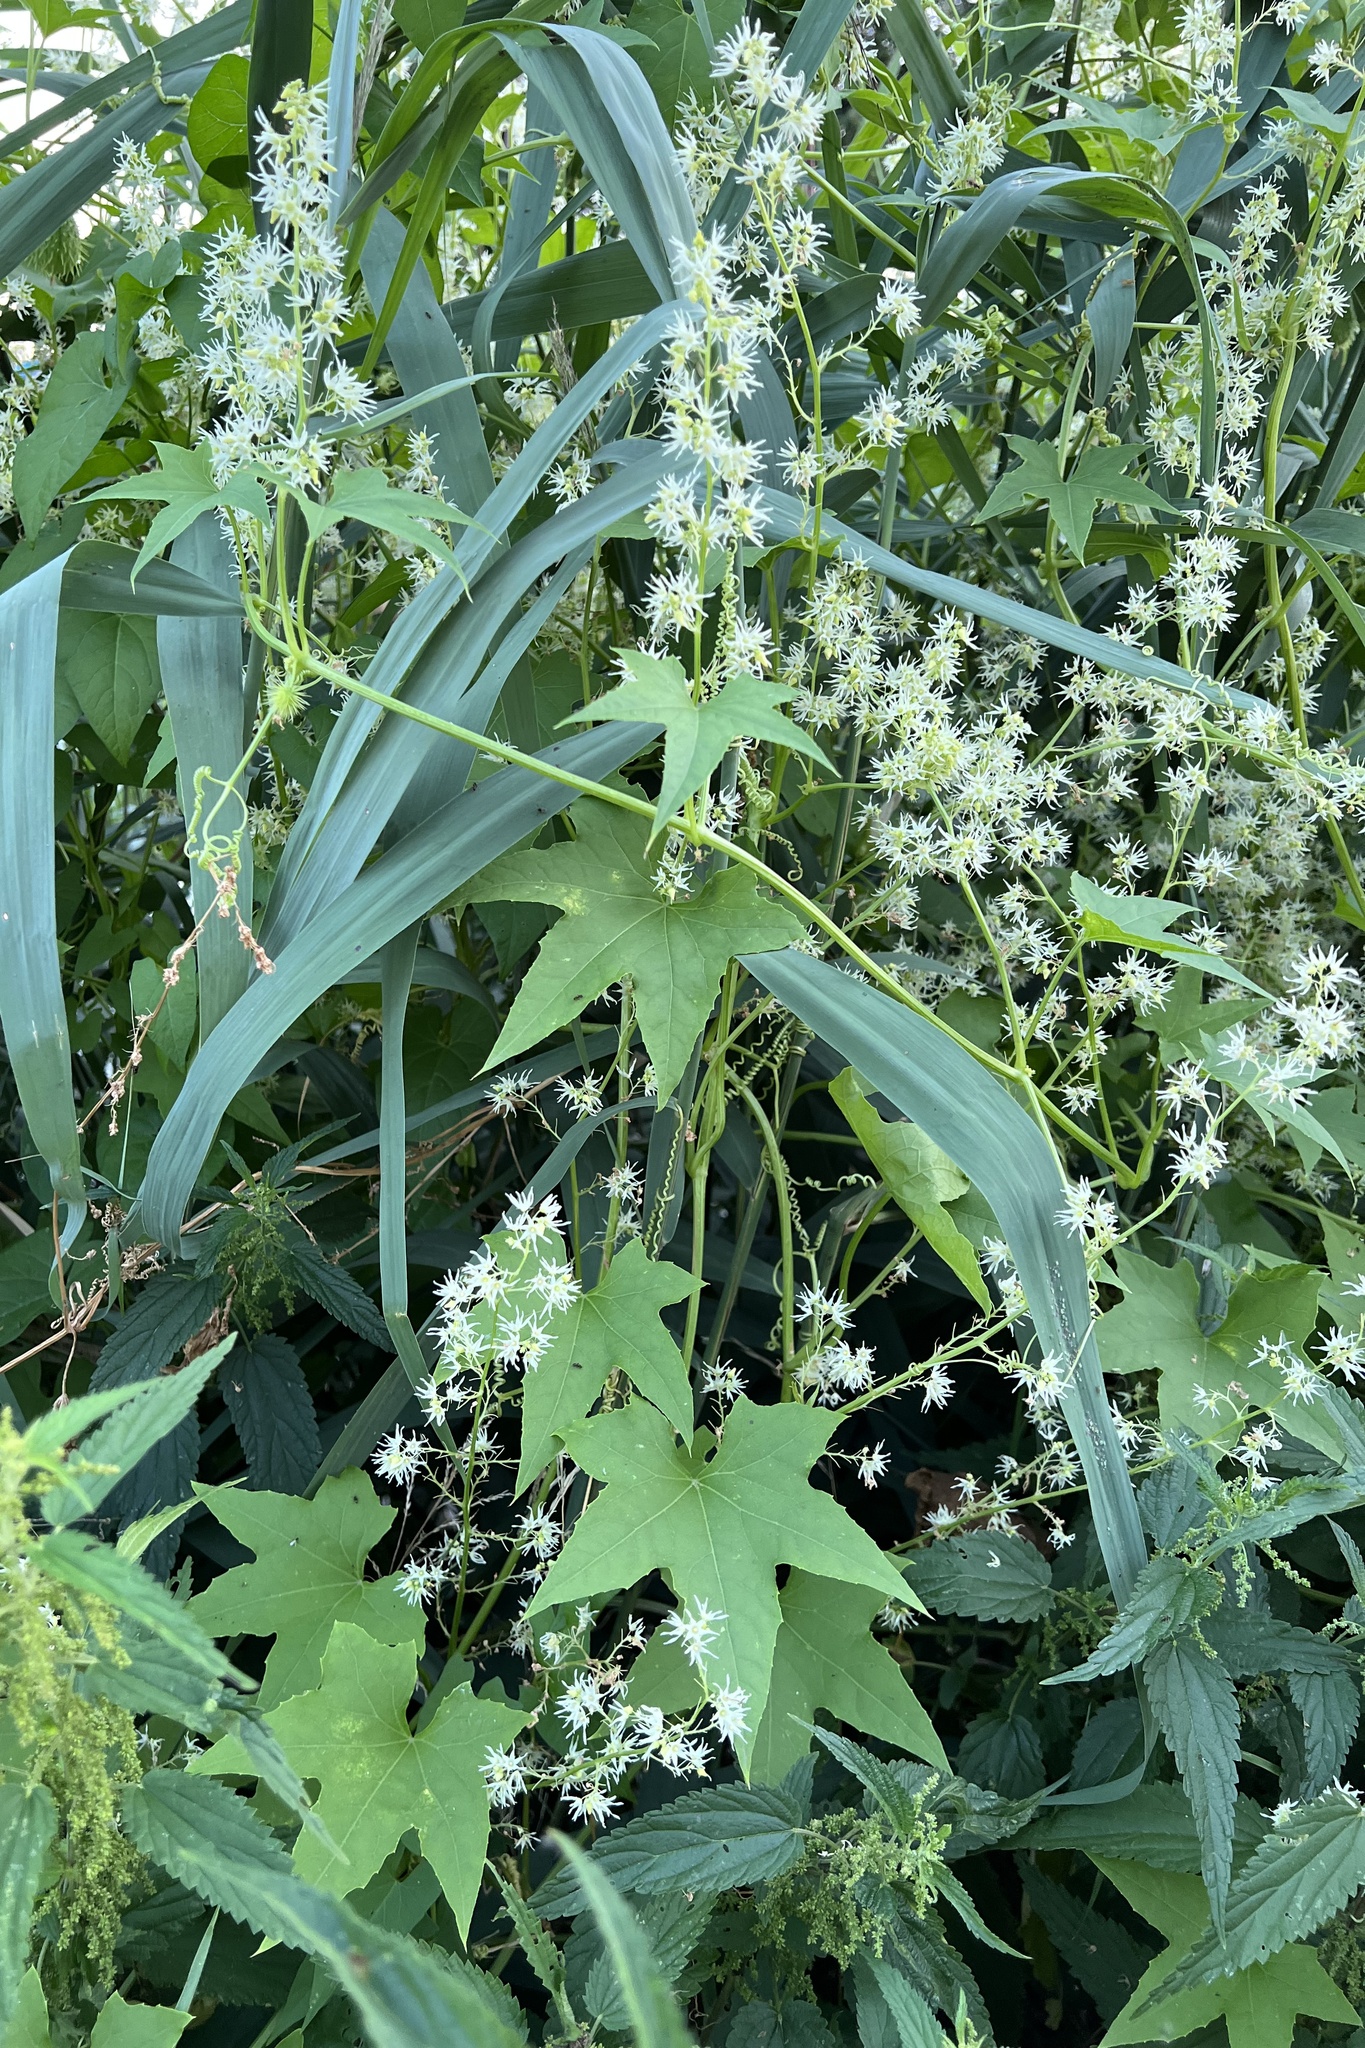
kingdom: Plantae
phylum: Tracheophyta
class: Magnoliopsida
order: Cucurbitales
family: Cucurbitaceae
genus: Echinocystis
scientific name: Echinocystis lobata
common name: Wild cucumber
